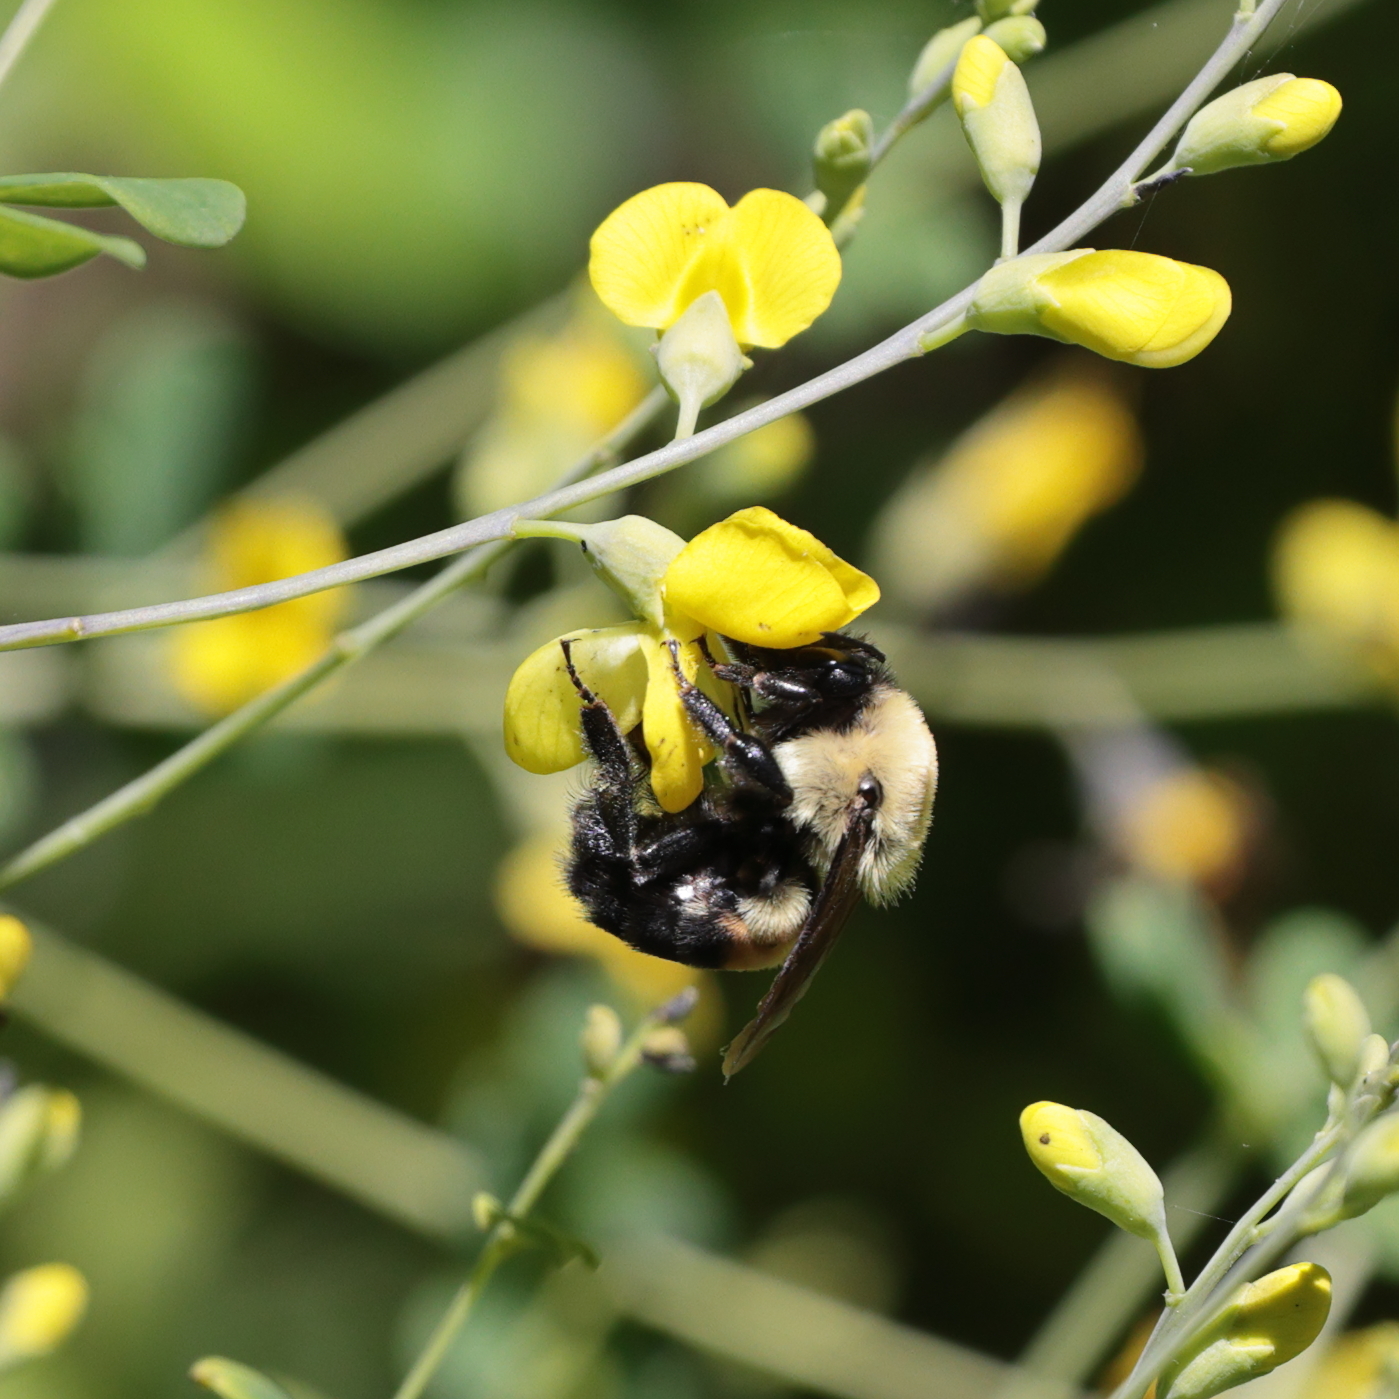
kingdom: Animalia
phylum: Arthropoda
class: Insecta
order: Hymenoptera
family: Apidae
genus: Bombus
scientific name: Bombus griseocollis
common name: Brown-belted bumble bee
